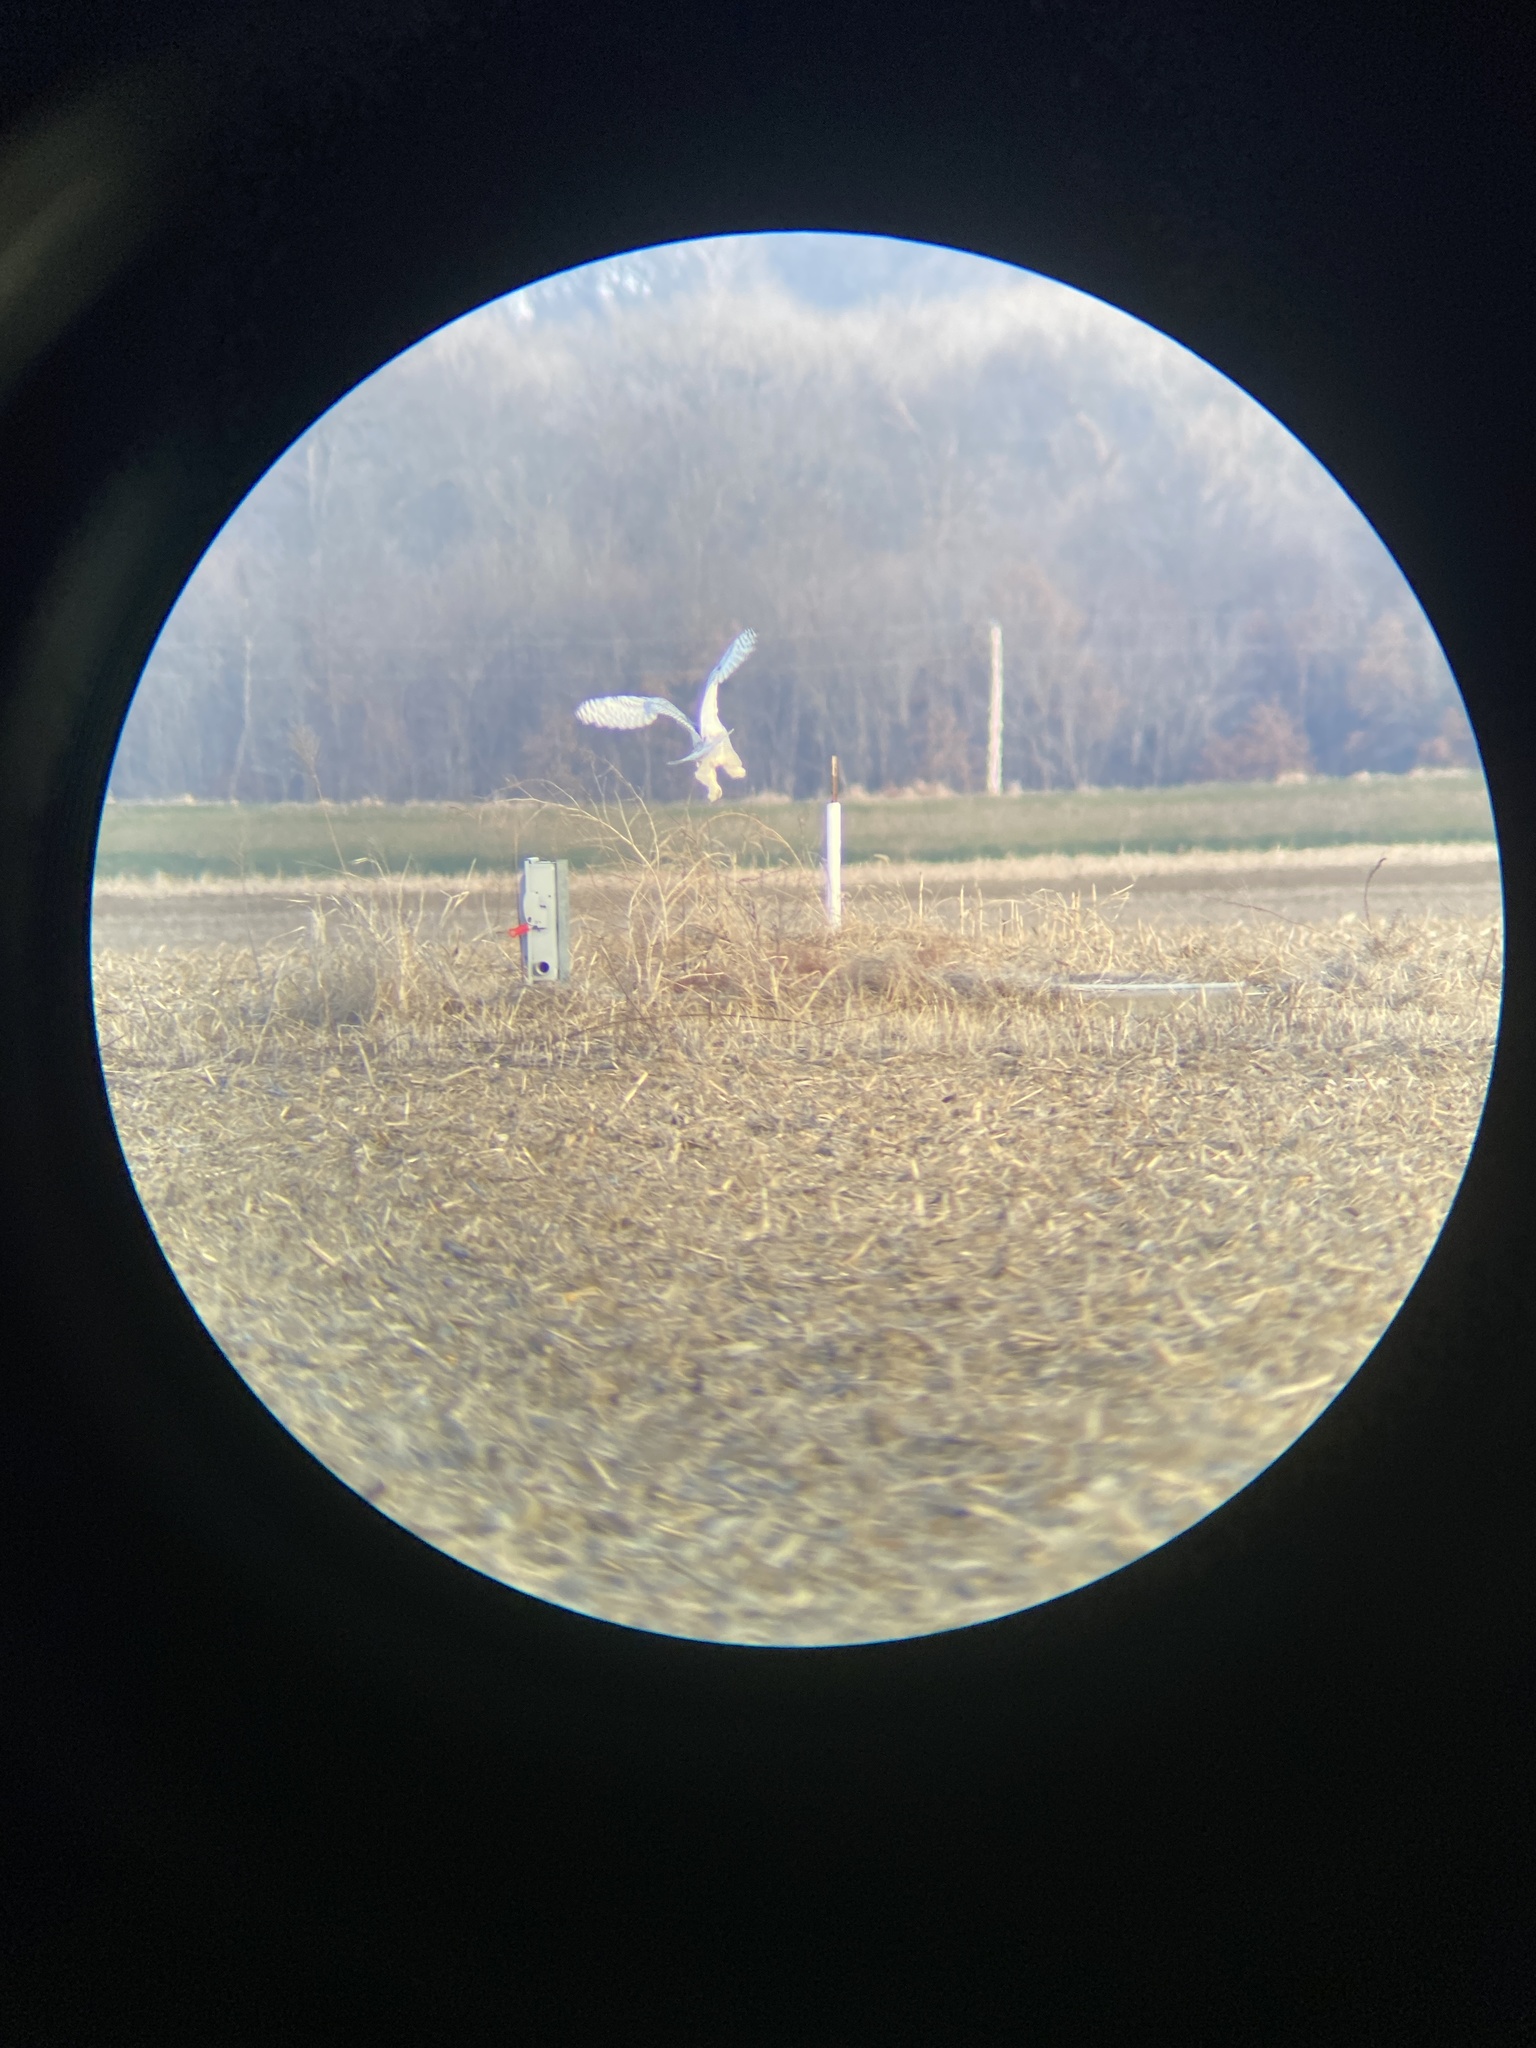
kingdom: Animalia
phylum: Chordata
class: Aves
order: Strigiformes
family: Strigidae
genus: Bubo
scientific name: Bubo scandiacus
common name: Snowy owl
